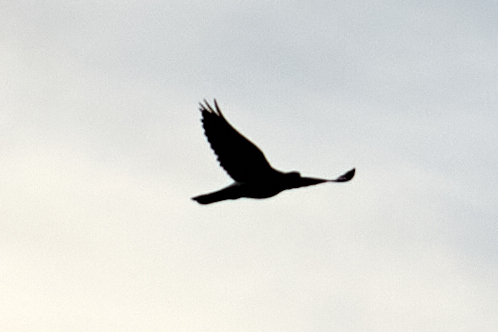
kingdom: Animalia
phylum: Chordata
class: Aves
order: Columbiformes
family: Columbidae
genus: Streptopelia
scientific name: Streptopelia decaocto
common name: Eurasian collared dove
